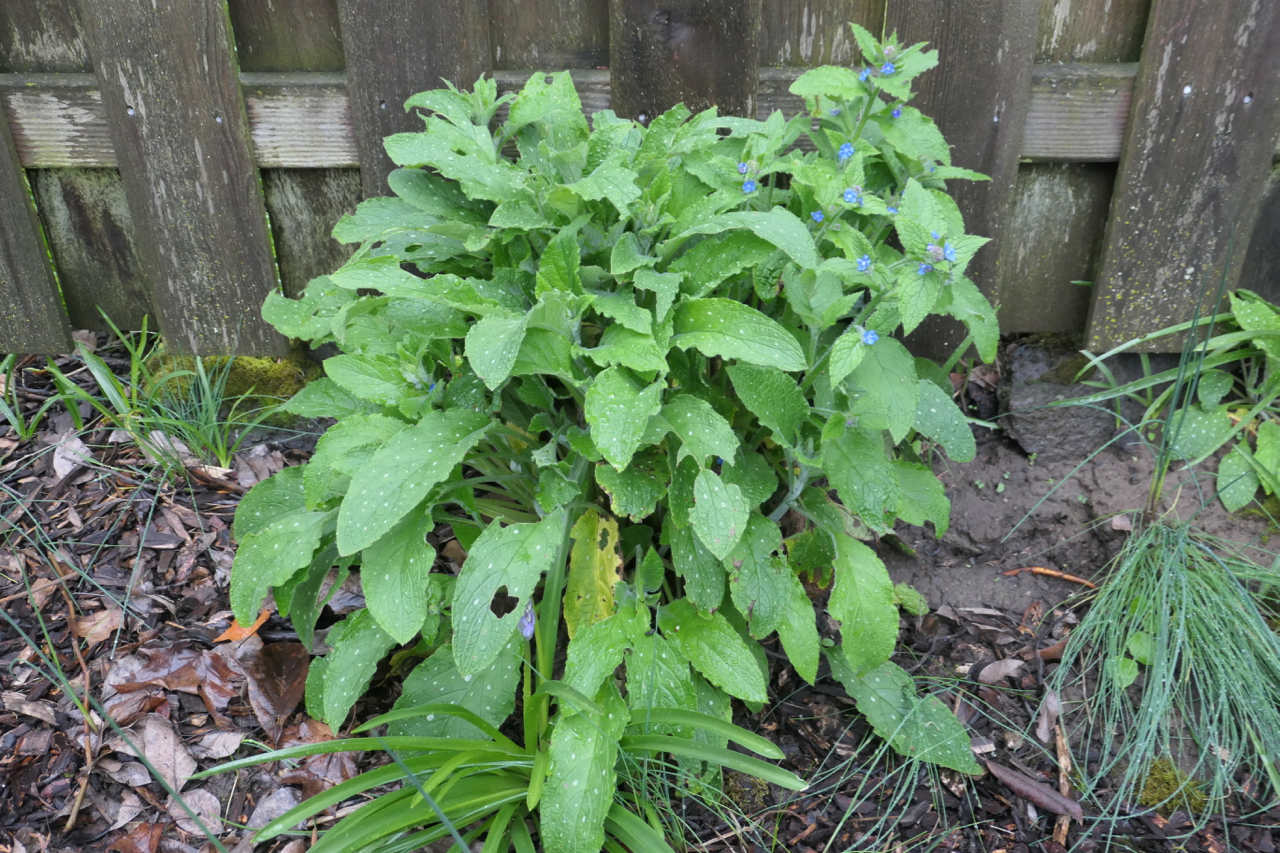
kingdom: Plantae
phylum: Tracheophyta
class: Magnoliopsida
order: Boraginales
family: Boraginaceae
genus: Pentaglottis
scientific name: Pentaglottis sempervirens
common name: Green alkanet
